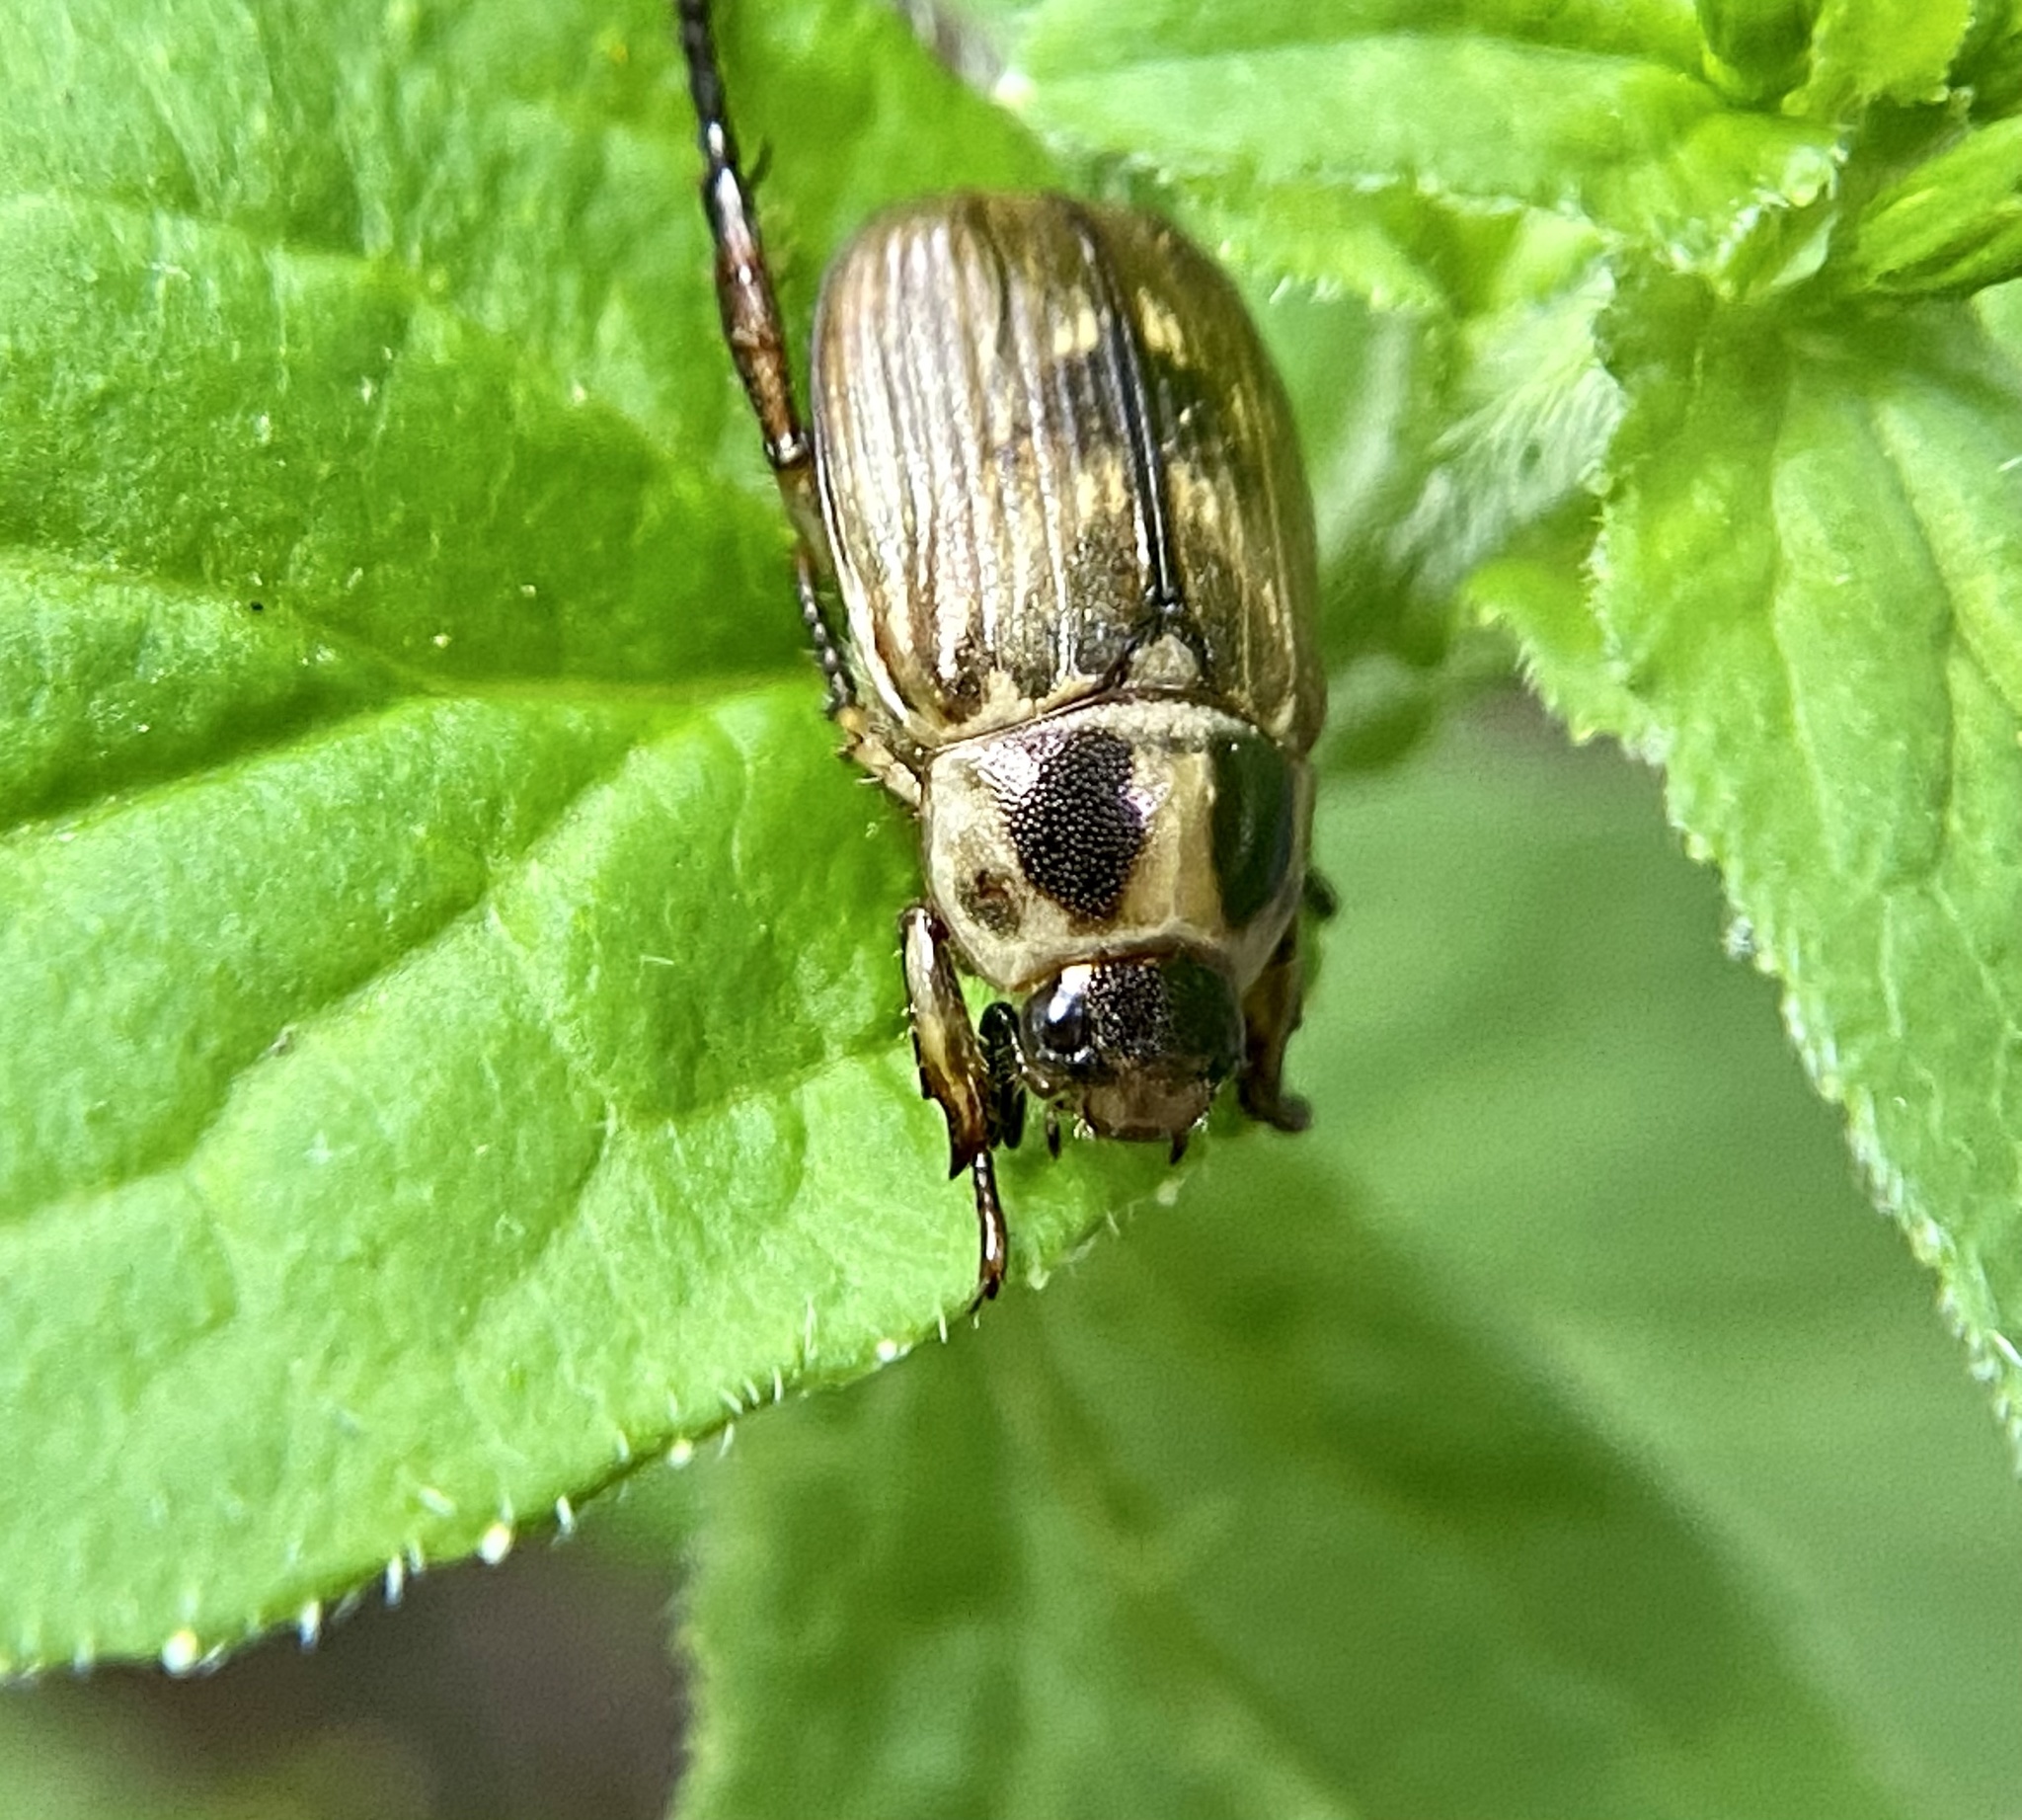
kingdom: Animalia
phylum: Arthropoda
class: Insecta
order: Coleoptera
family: Scarabaeidae
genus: Exomala
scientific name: Exomala orientalis
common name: Oriental beetle
